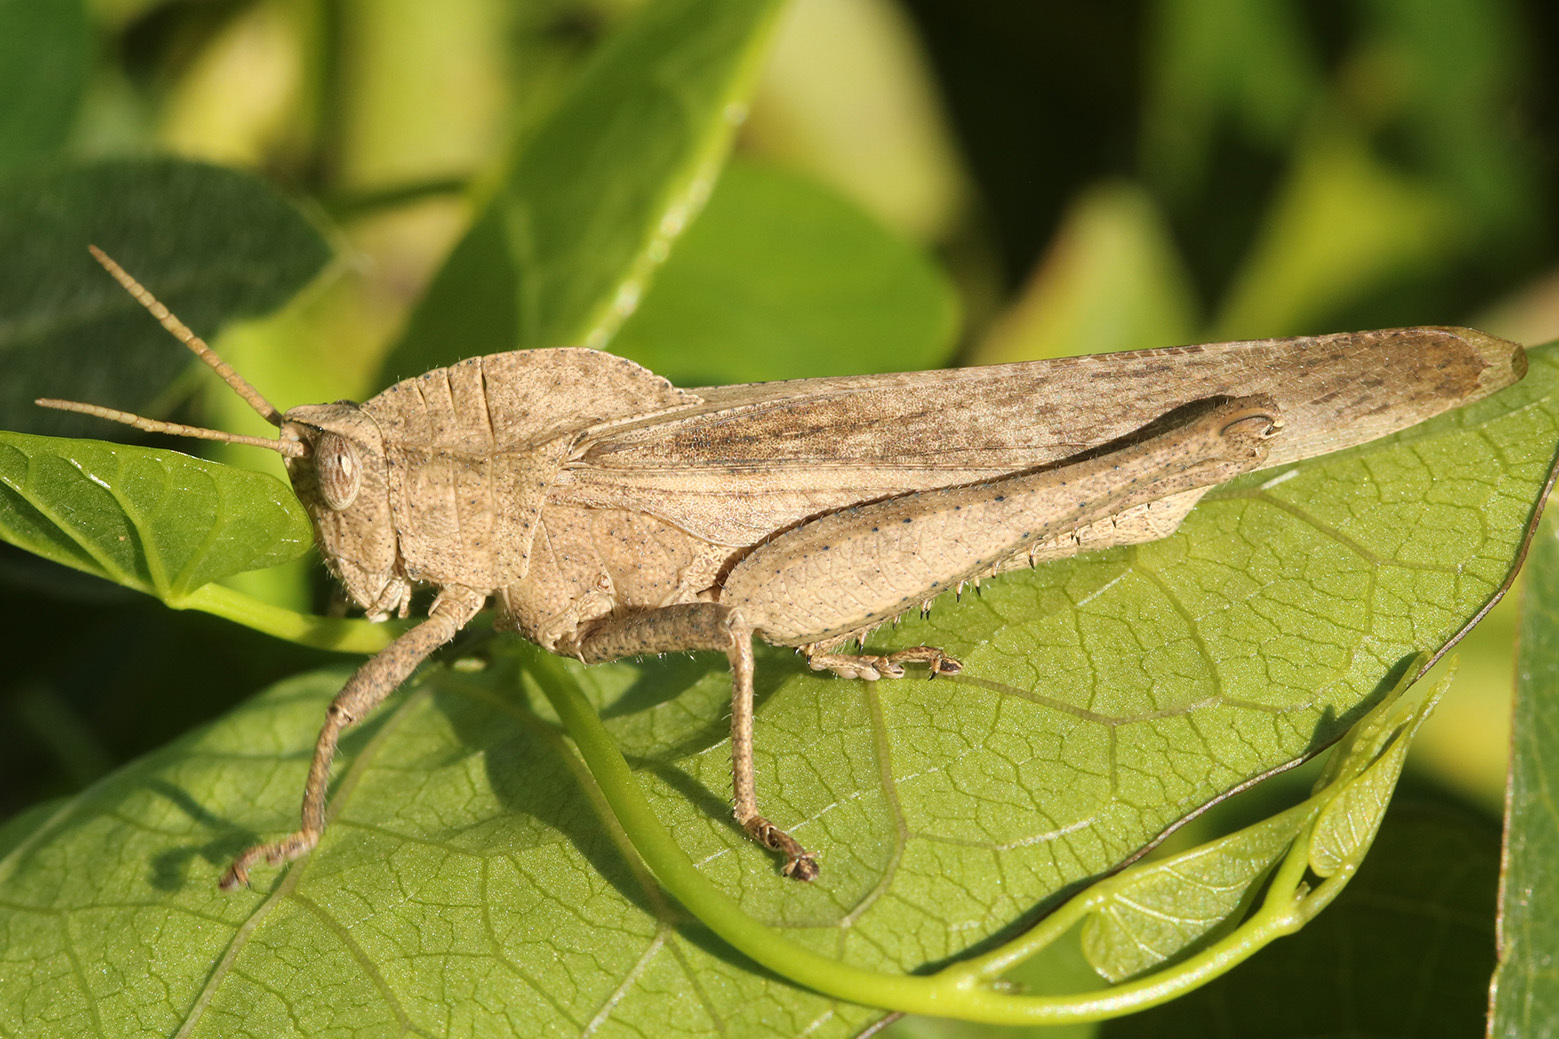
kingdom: Animalia
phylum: Arthropoda
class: Insecta
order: Orthoptera
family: Romaleidae
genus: Xyleus
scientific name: Xyleus discoideus
